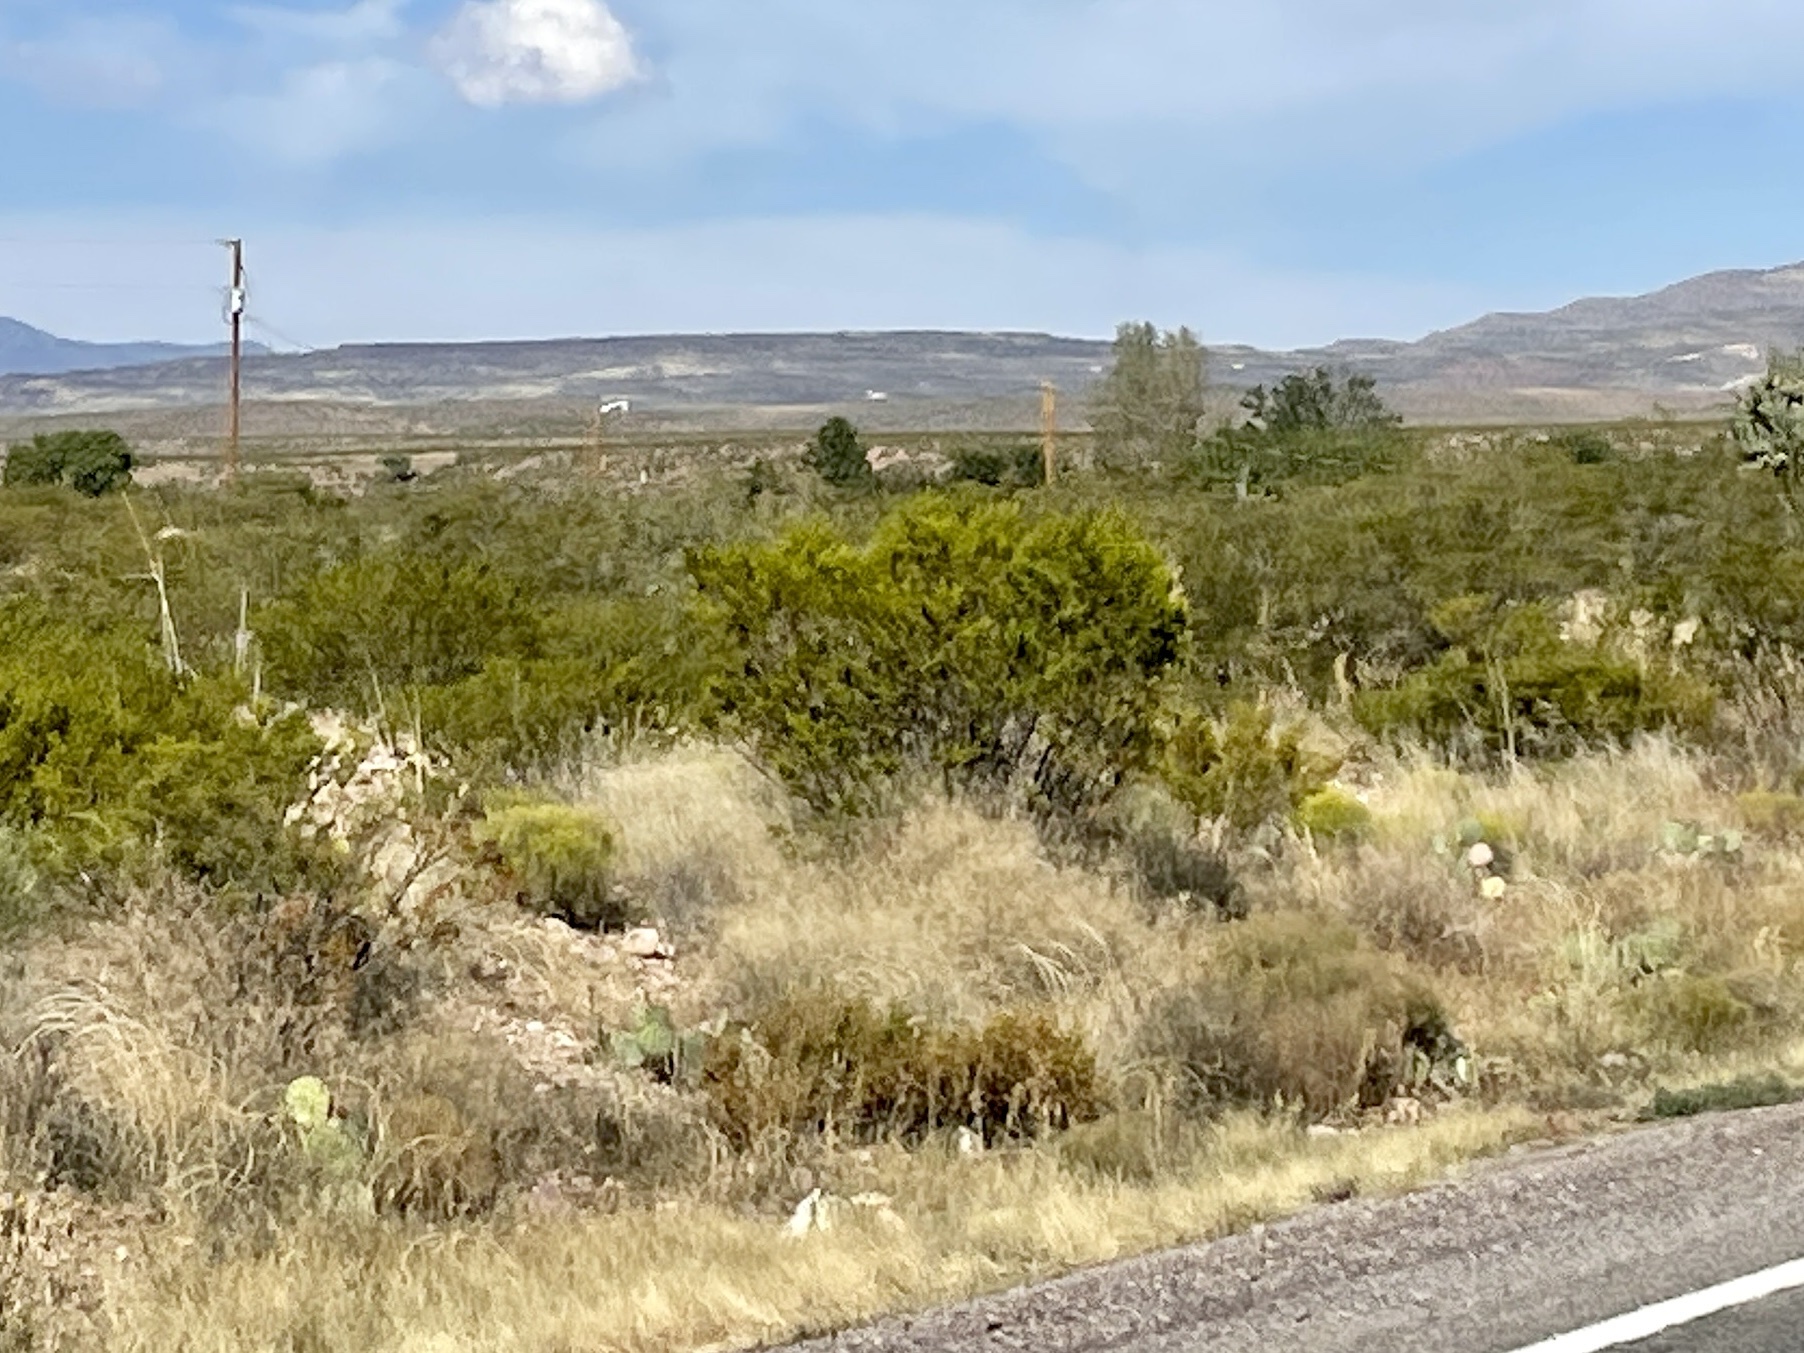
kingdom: Plantae
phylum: Tracheophyta
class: Magnoliopsida
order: Zygophyllales
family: Zygophyllaceae
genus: Larrea
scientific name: Larrea tridentata
